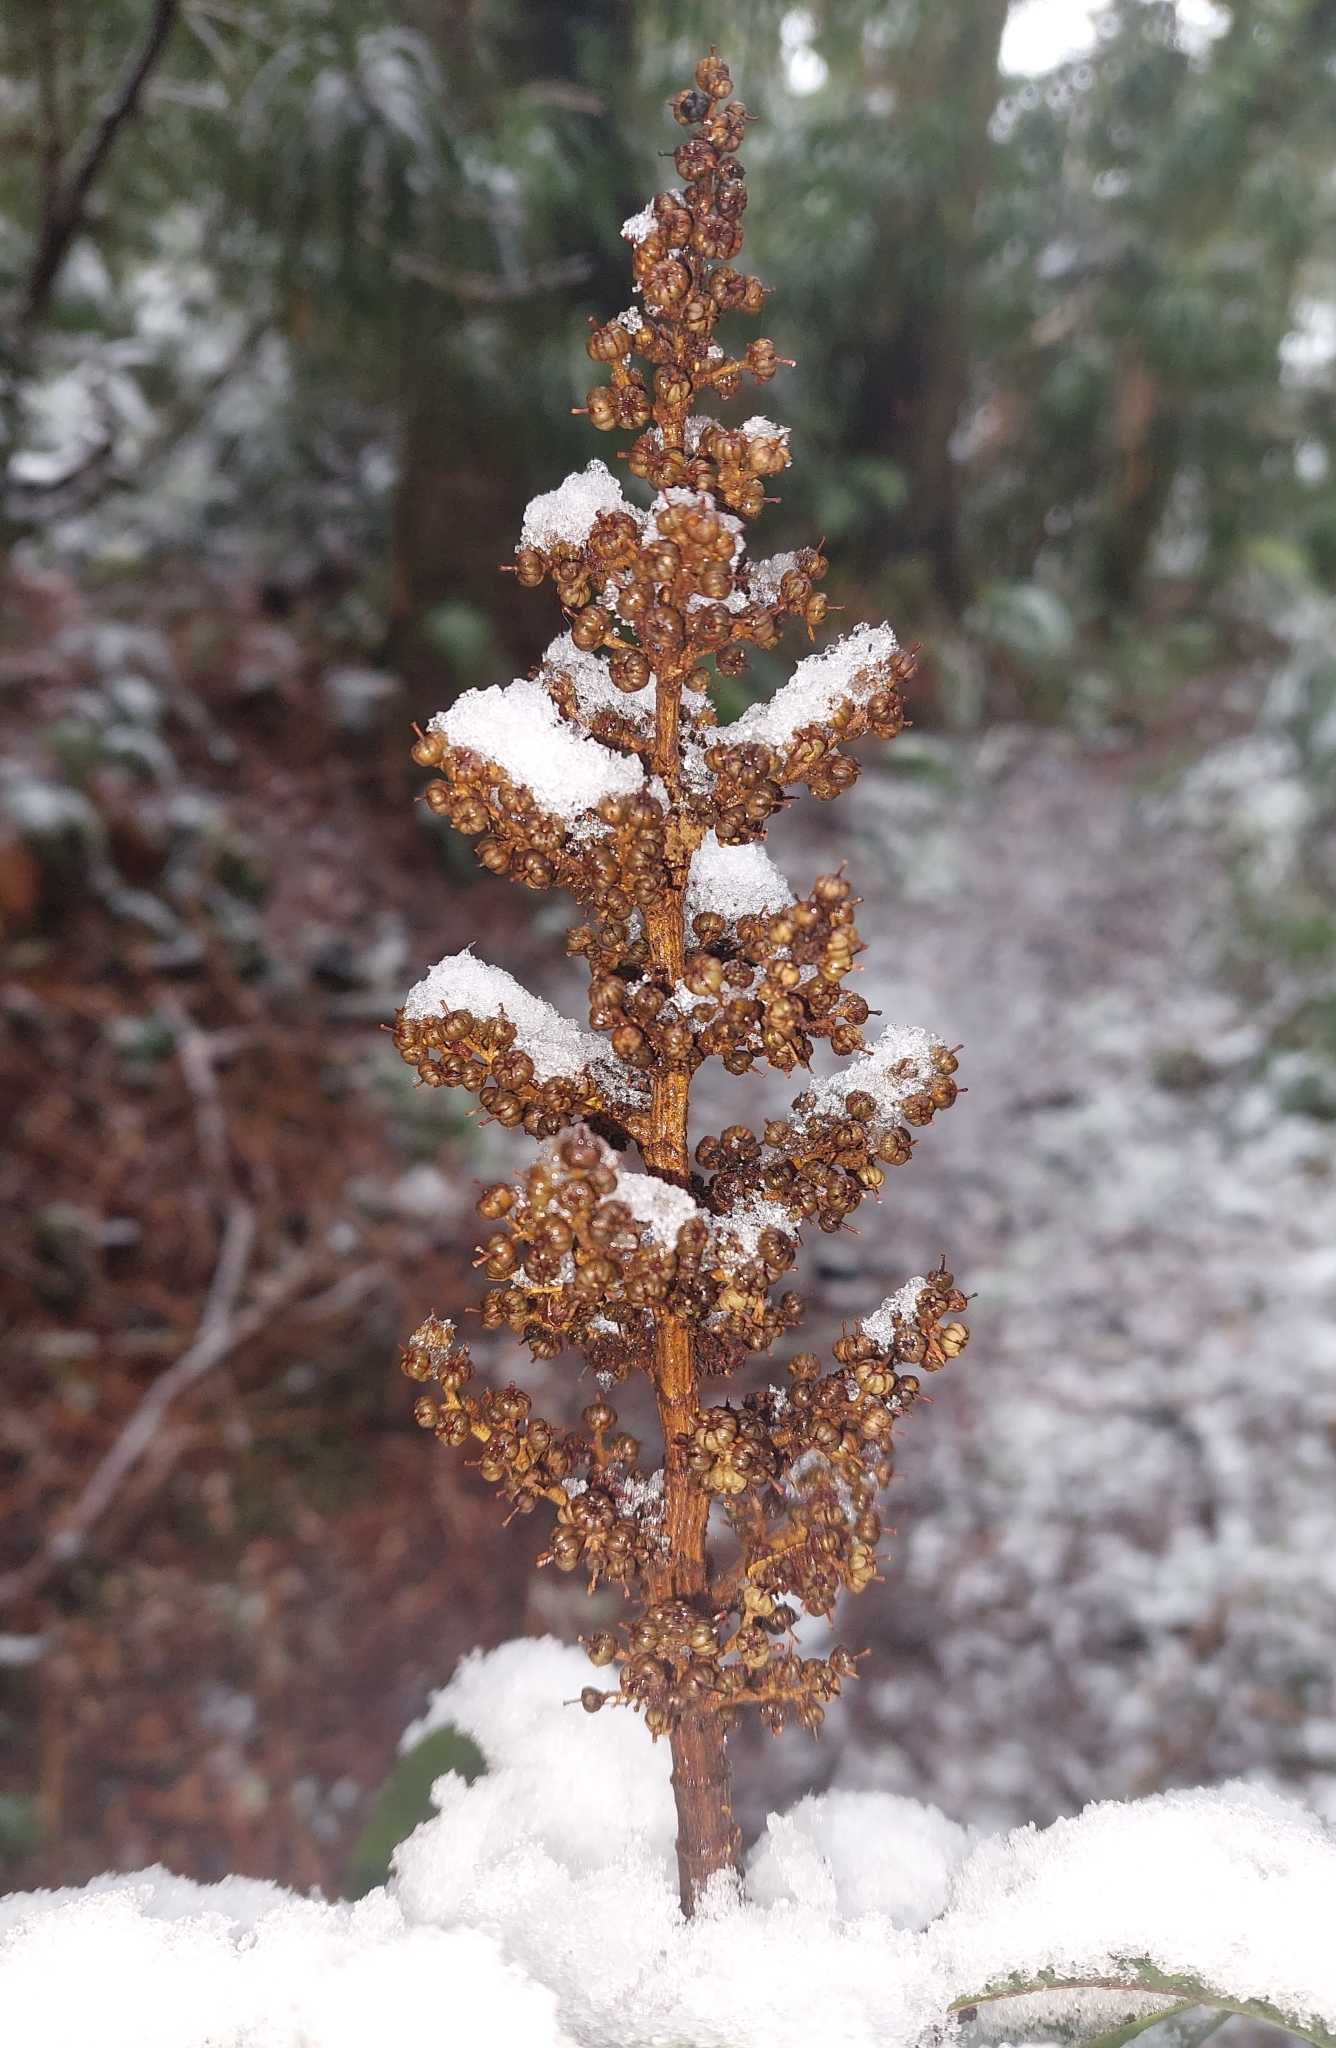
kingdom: Plantae
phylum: Tracheophyta
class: Magnoliopsida
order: Ericales
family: Ericaceae
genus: Dracophyllum
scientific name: Dracophyllum latifolium
